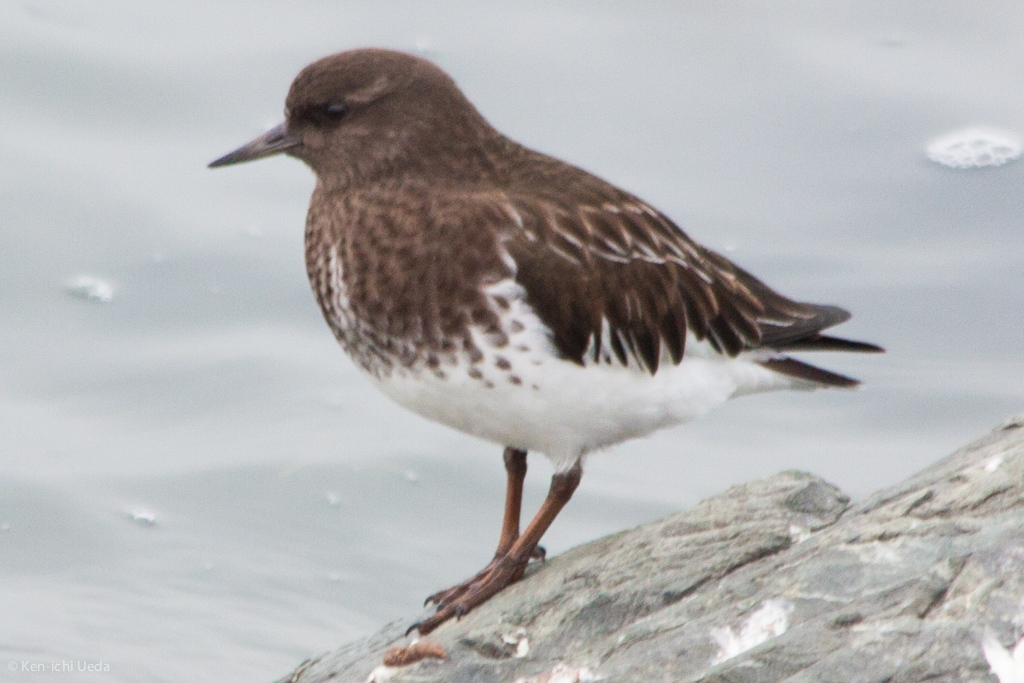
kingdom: Animalia
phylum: Chordata
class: Aves
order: Charadriiformes
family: Scolopacidae
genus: Arenaria
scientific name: Arenaria melanocephala
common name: Black turnstone
